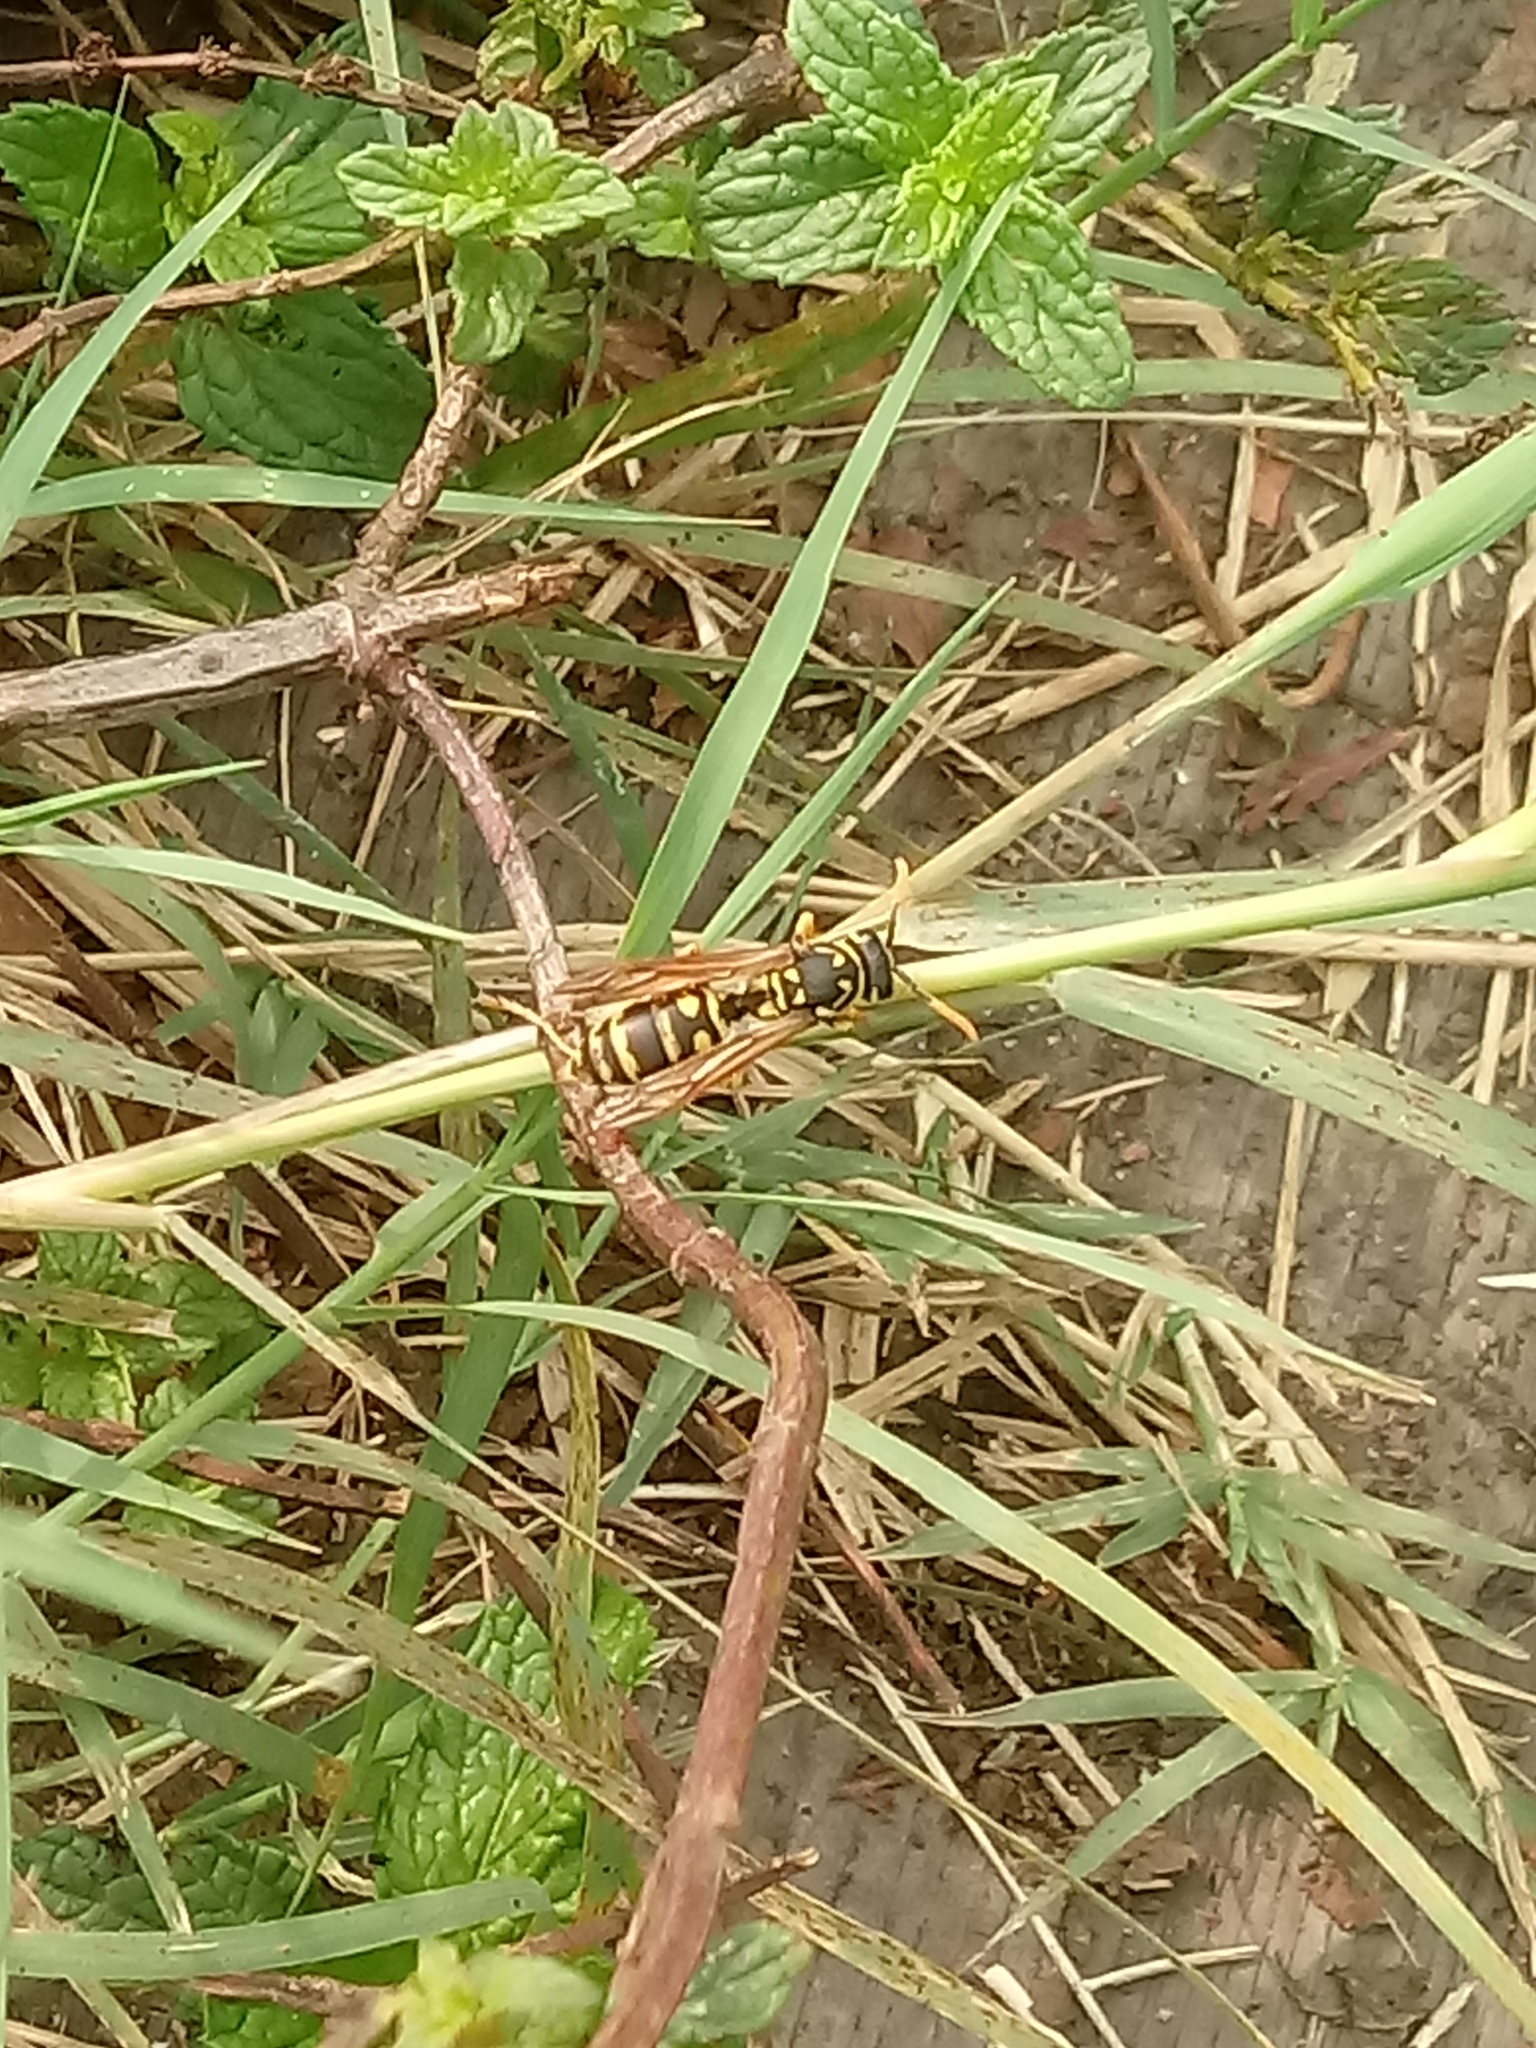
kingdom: Animalia
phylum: Arthropoda
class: Insecta
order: Hymenoptera
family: Eumenidae
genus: Polistes
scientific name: Polistes dominula
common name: Paper wasp
